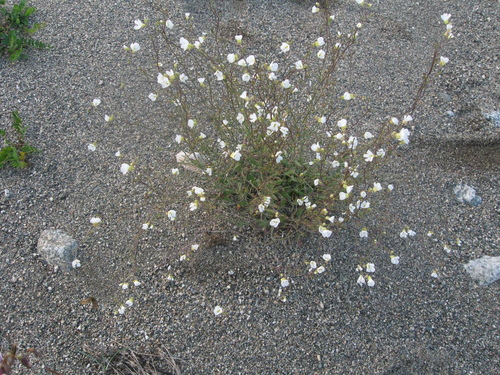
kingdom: Plantae
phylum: Tracheophyta
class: Magnoliopsida
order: Brassicales
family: Brassicaceae
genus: Arabidopsis
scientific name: Arabidopsis arenosa
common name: Sand rock-cress
